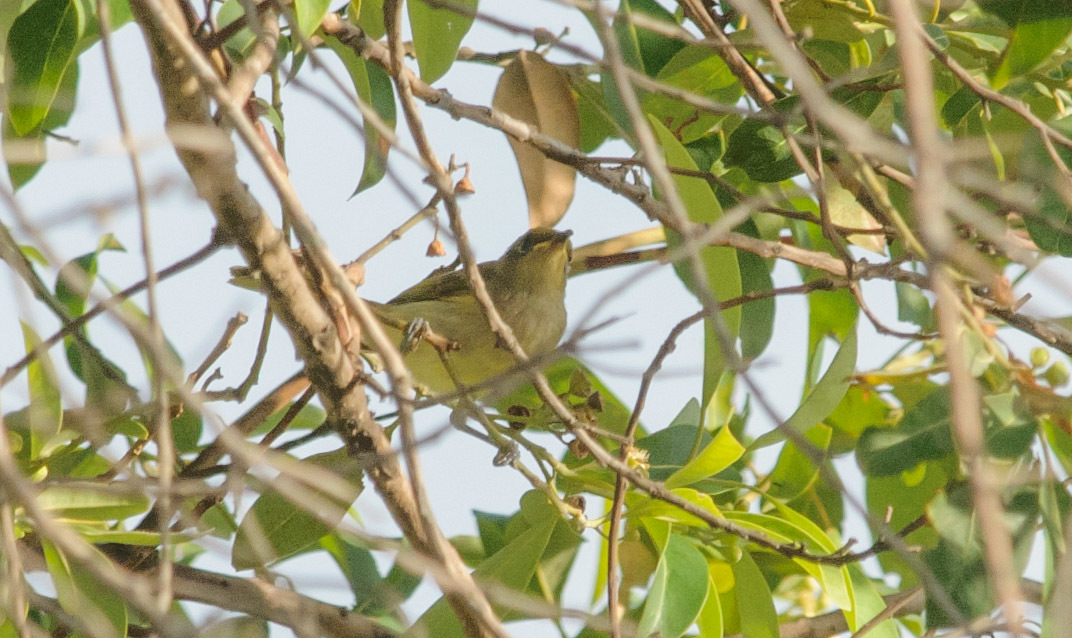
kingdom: Animalia
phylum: Chordata
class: Aves
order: Passeriformes
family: Meliphagidae
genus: Lichmera
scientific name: Lichmera indistincta
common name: Brown honeyeater
